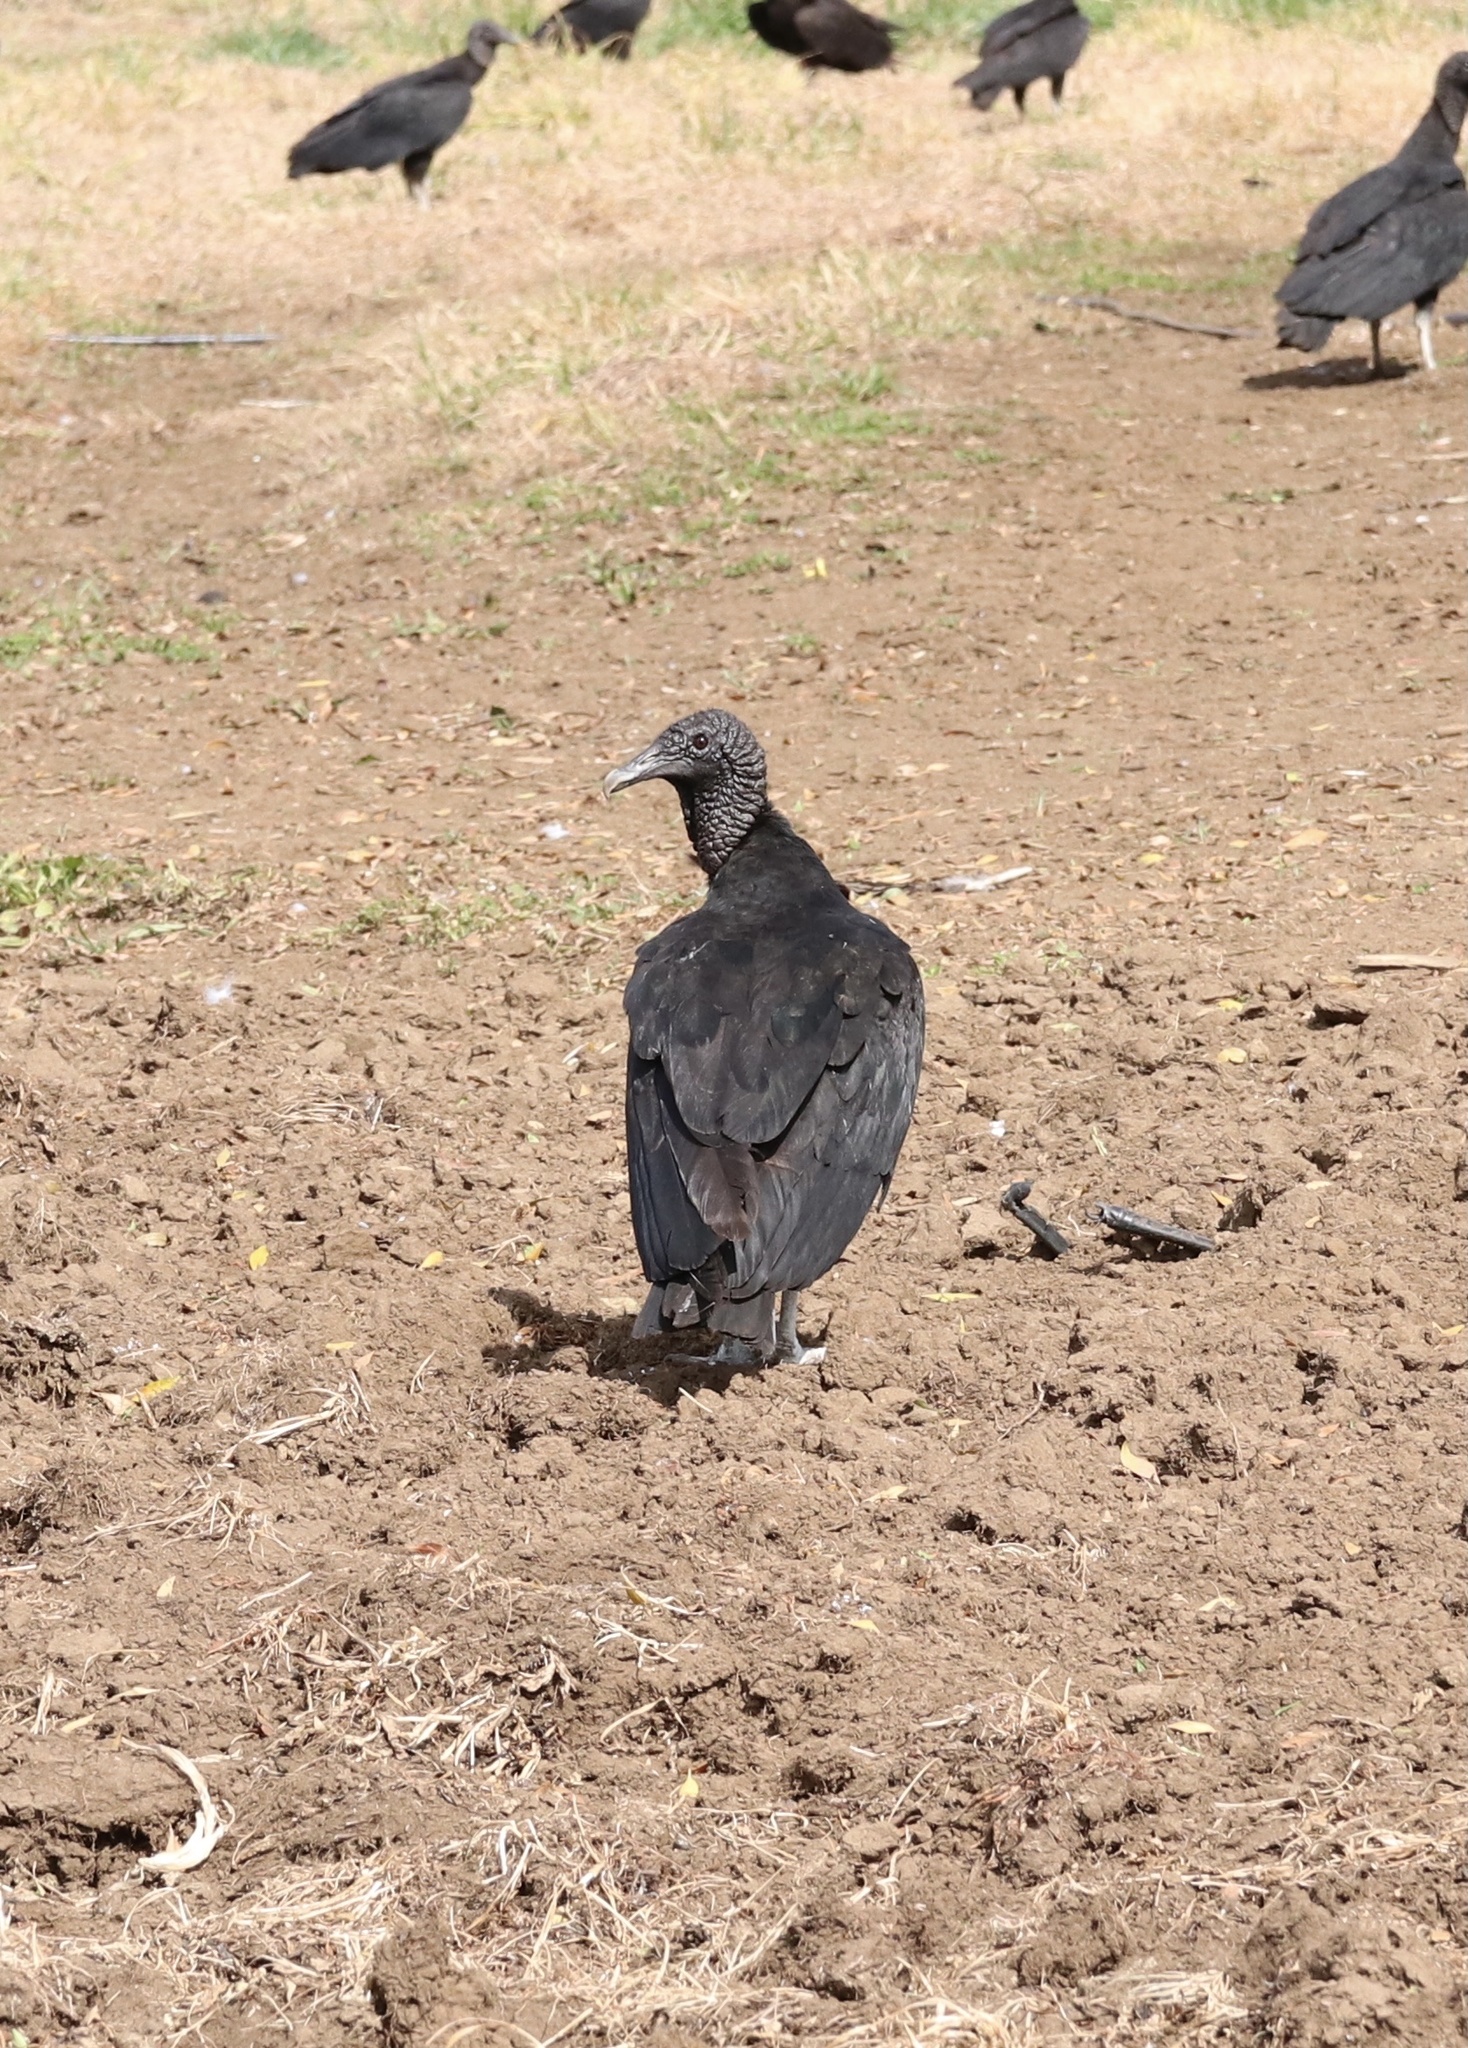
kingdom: Animalia
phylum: Chordata
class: Aves
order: Accipitriformes
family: Cathartidae
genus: Coragyps
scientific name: Coragyps atratus
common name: Black vulture
